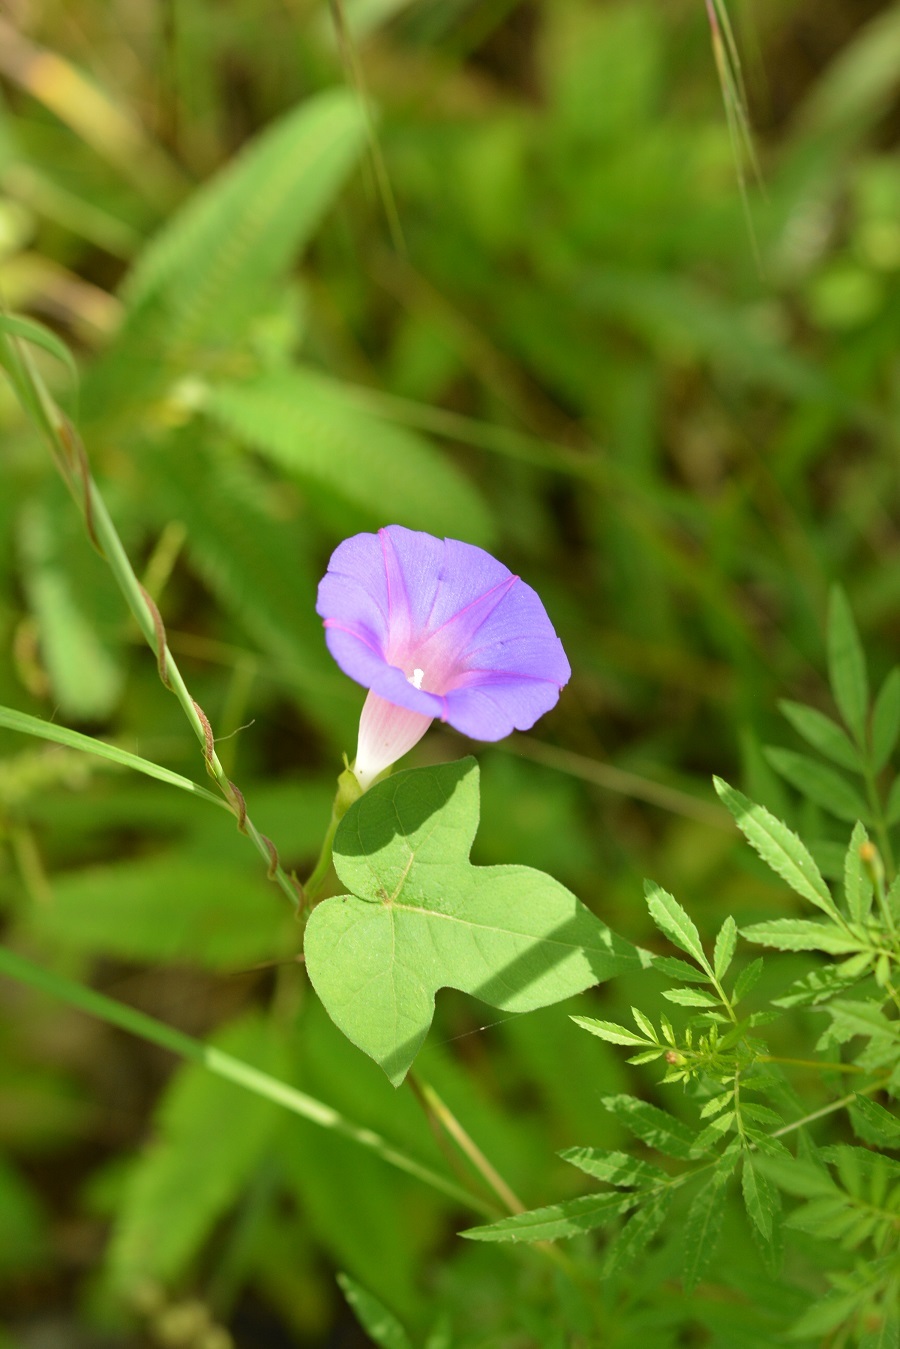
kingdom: Plantae
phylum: Tracheophyta
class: Magnoliopsida
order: Solanales
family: Convolvulaceae
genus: Ipomoea
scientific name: Ipomoea purpurea
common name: Common morning-glory
